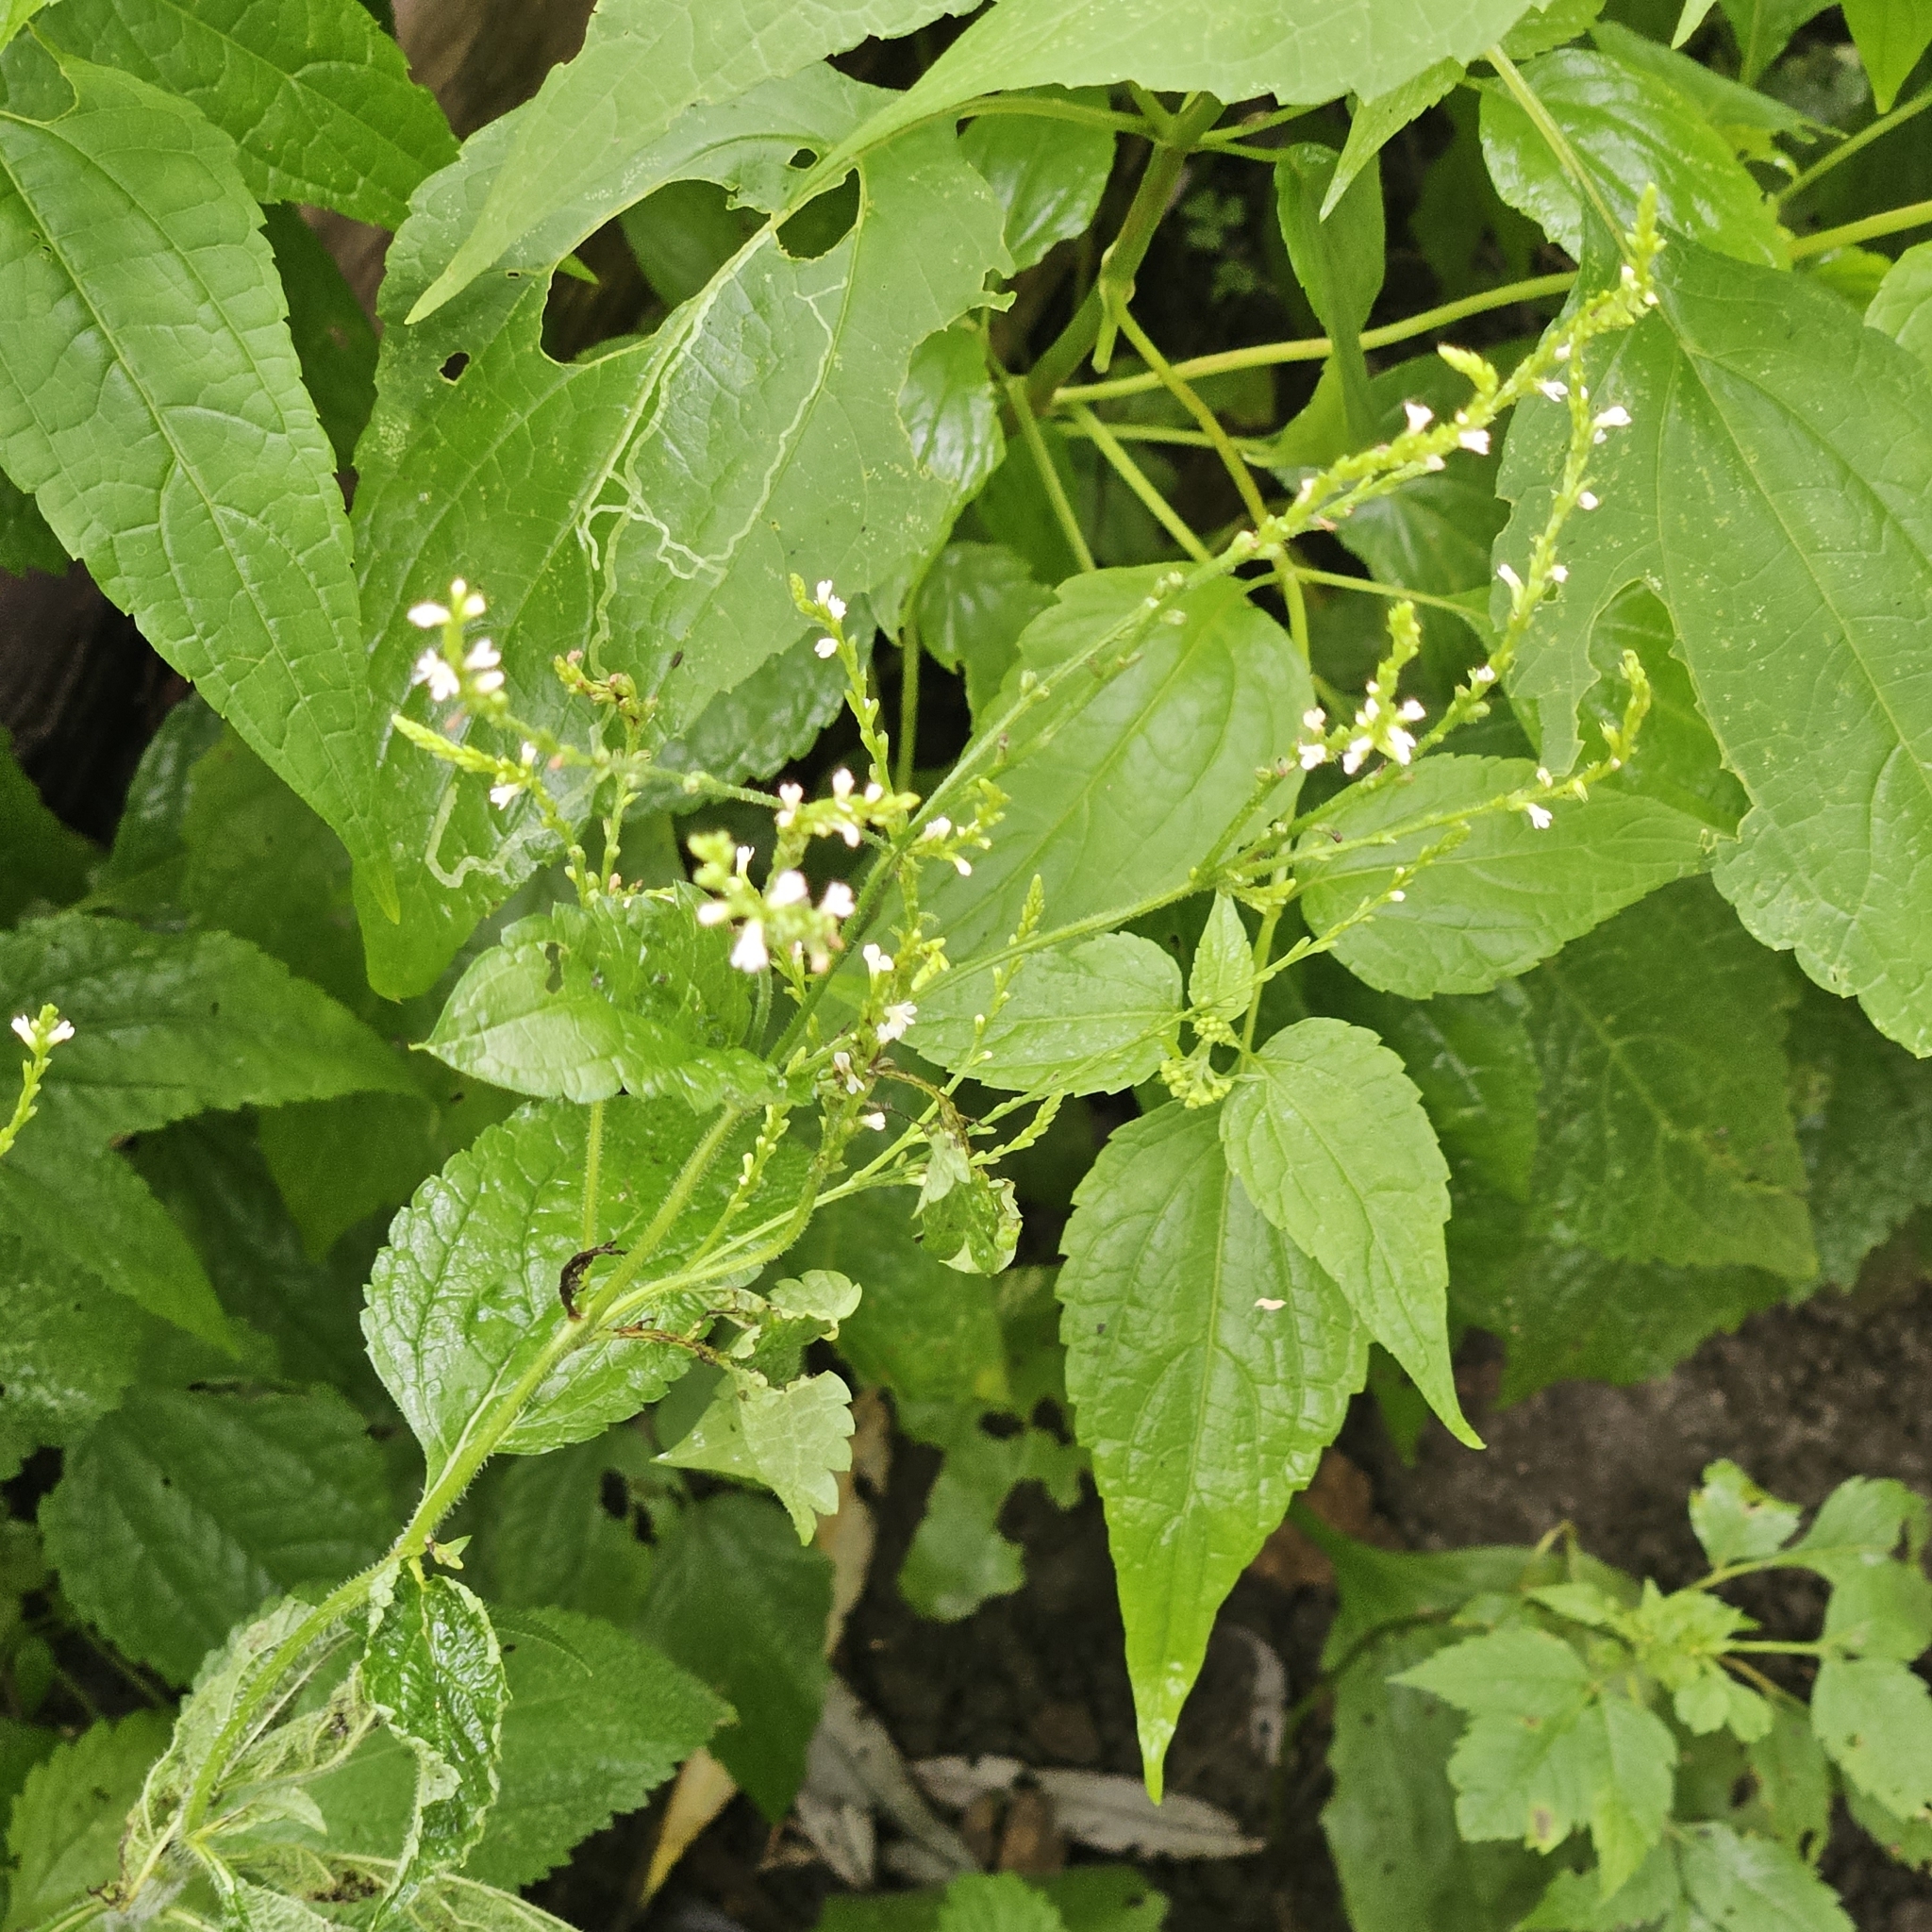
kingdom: Plantae
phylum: Tracheophyta
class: Magnoliopsida
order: Lamiales
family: Verbenaceae
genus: Verbena
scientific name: Verbena urticifolia
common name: Nettle-leaved vervain
